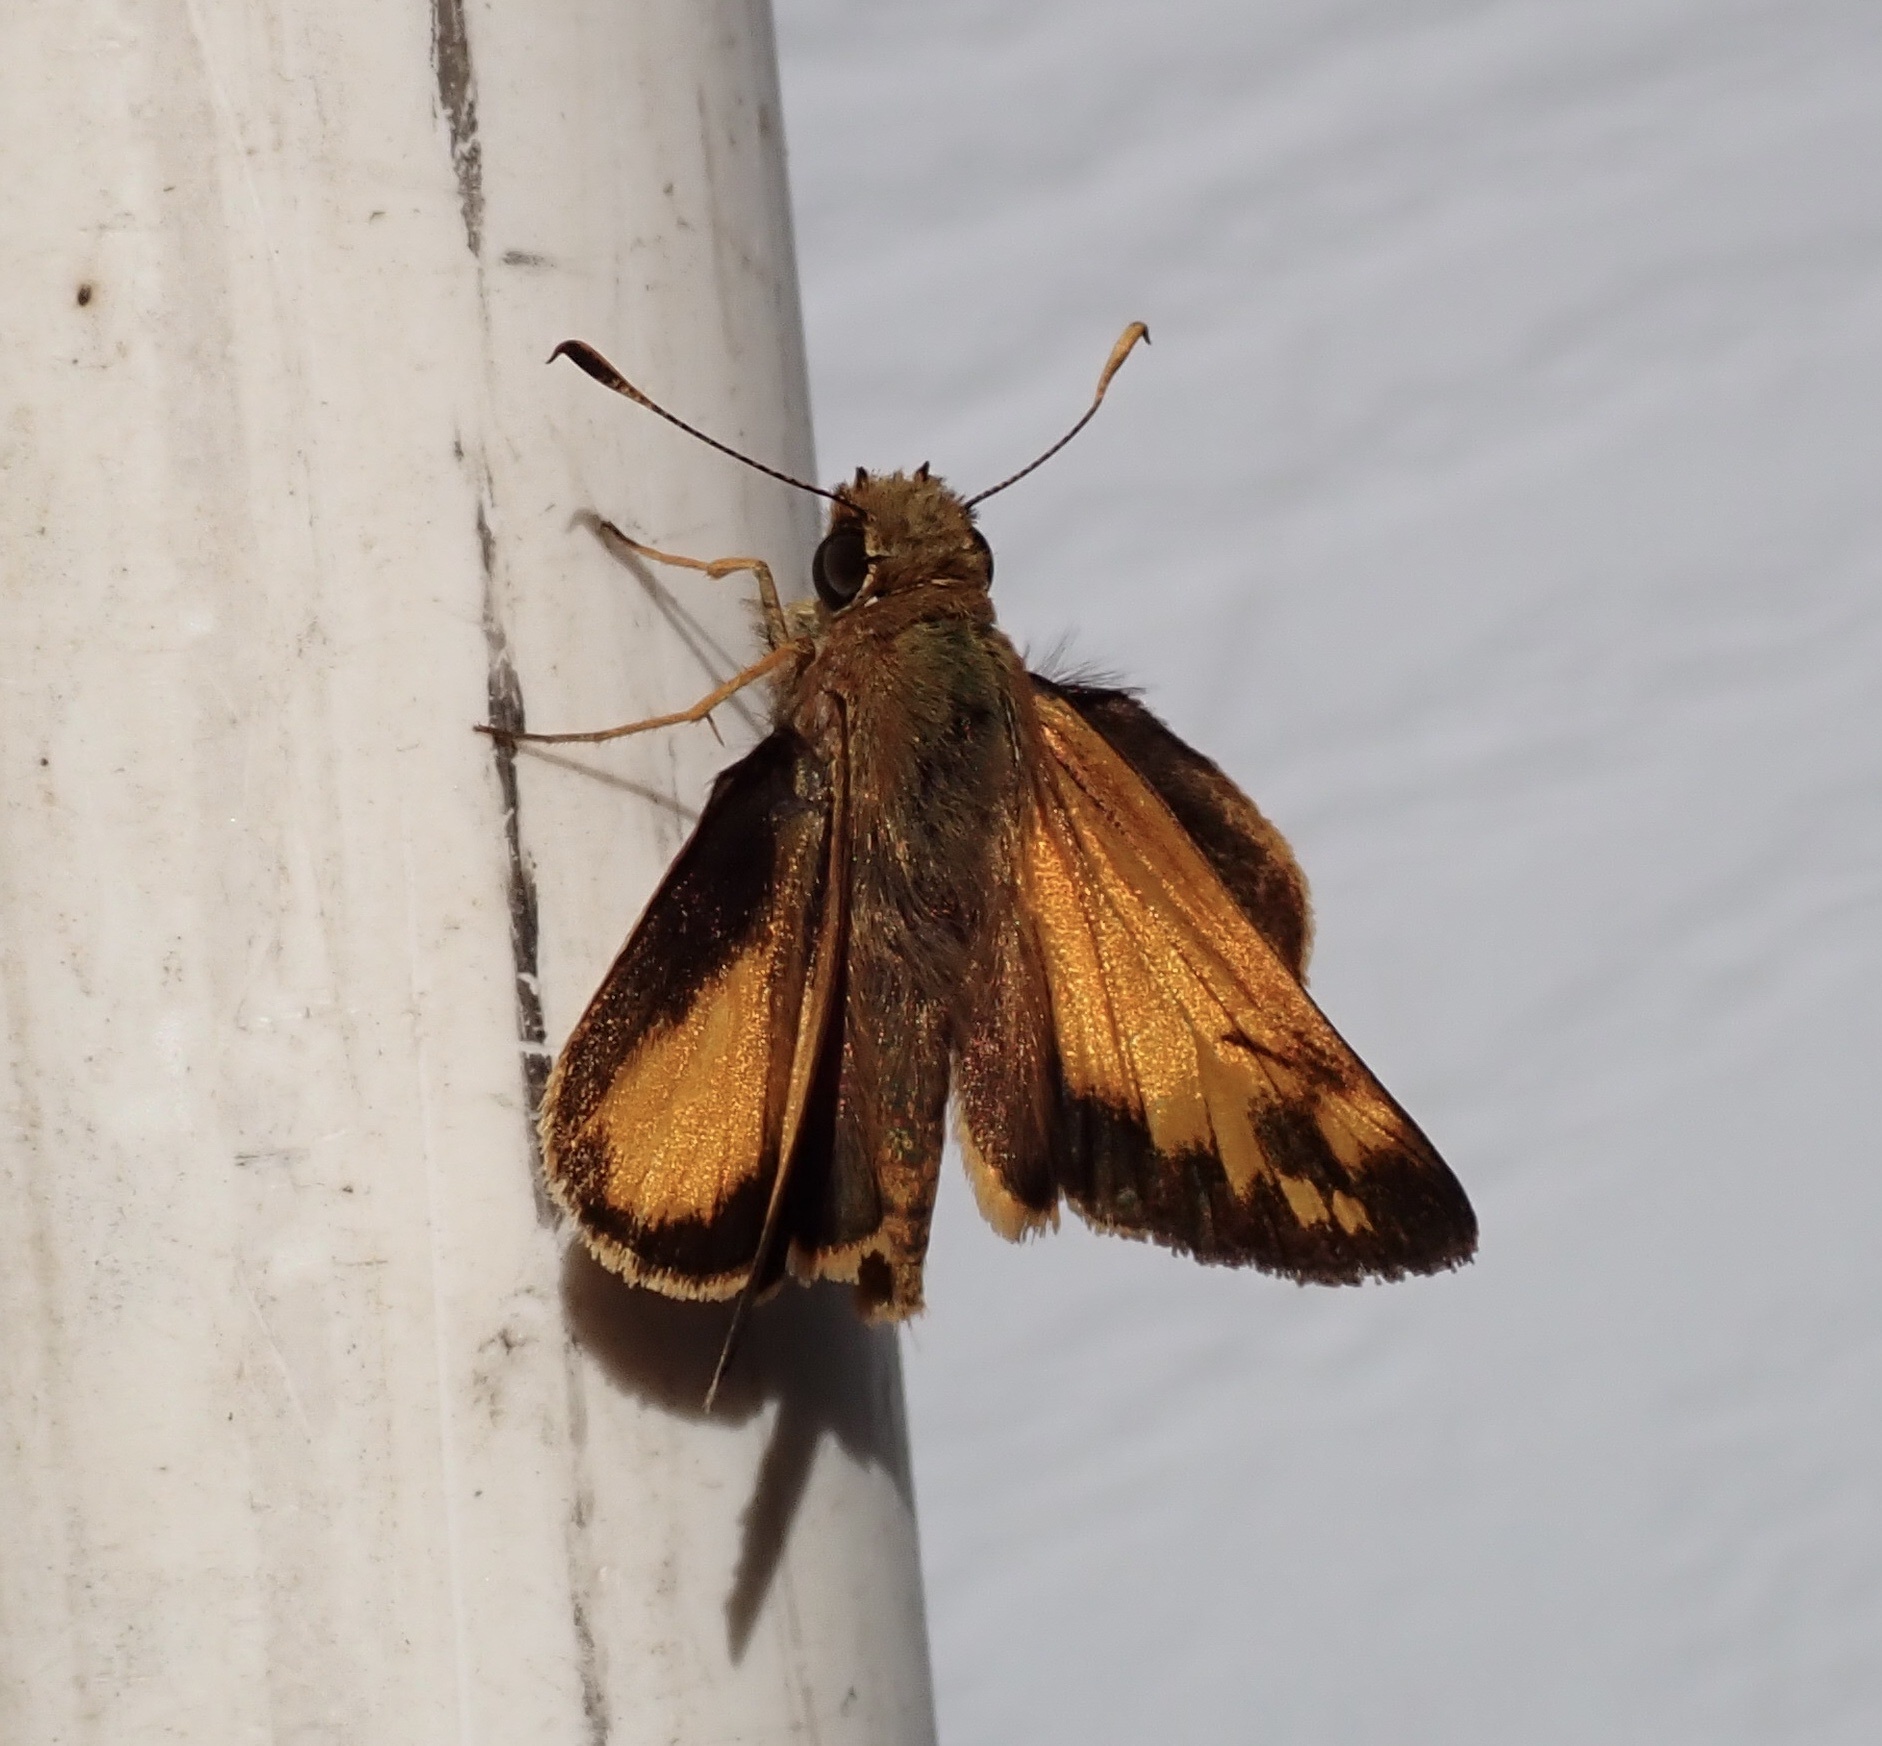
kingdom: Animalia
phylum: Arthropoda
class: Insecta
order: Lepidoptera
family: Hesperiidae
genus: Lon
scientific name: Lon zabulon
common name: Zabulon skipper
